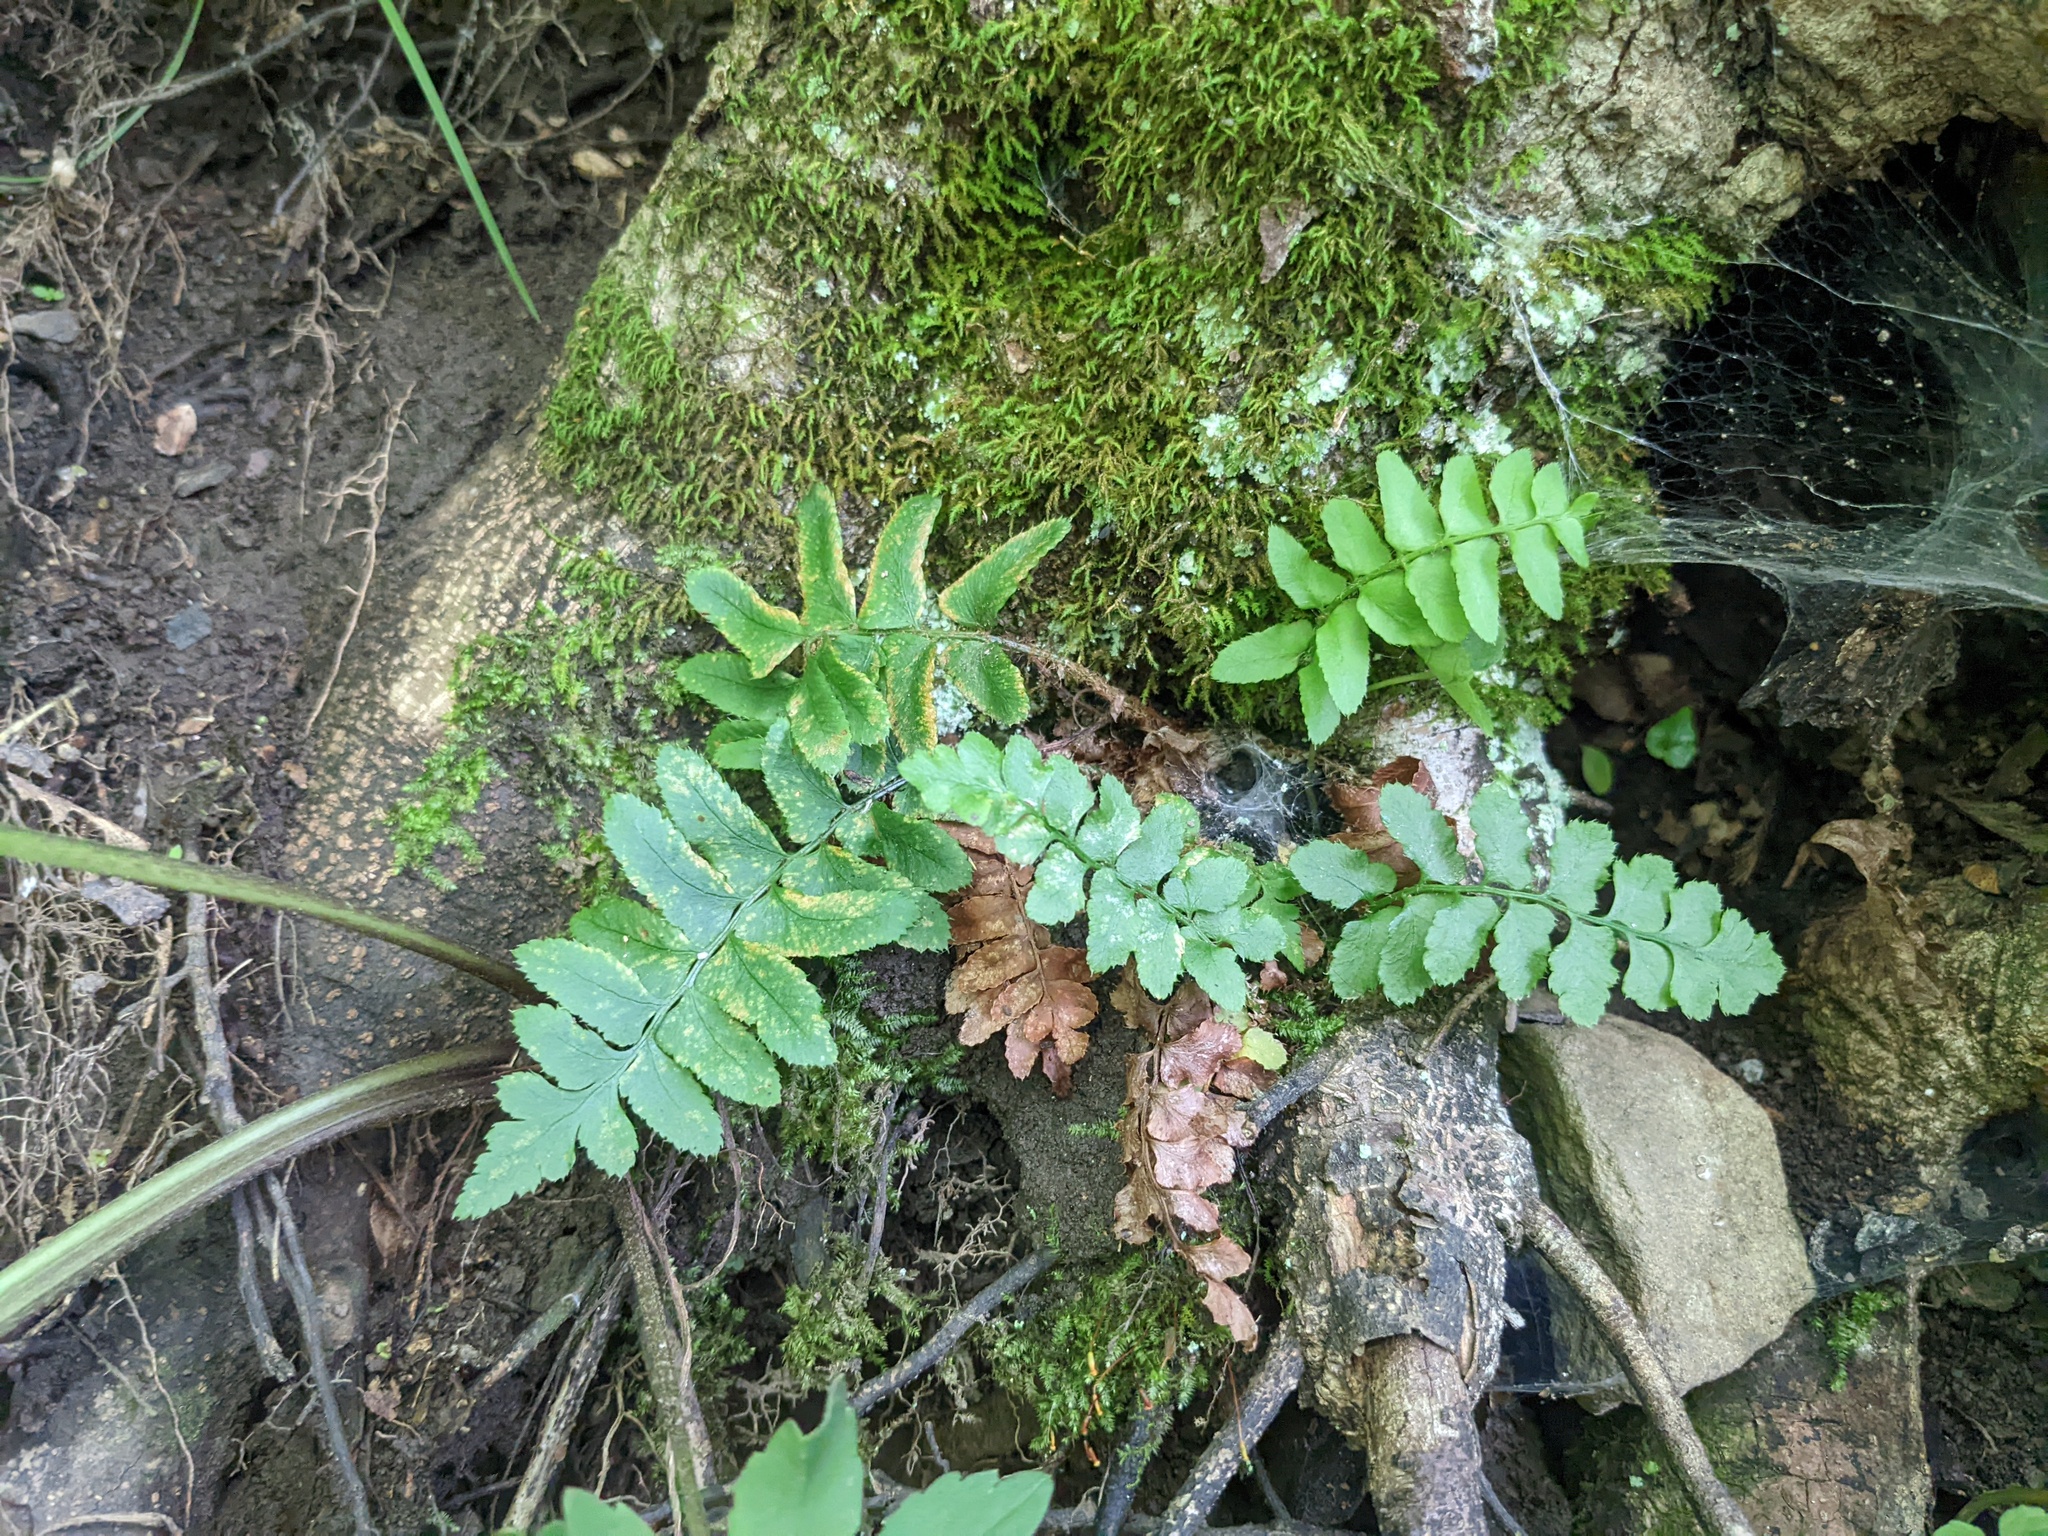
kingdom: Plantae
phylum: Tracheophyta
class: Polypodiopsida
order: Polypodiales
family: Dryopteridaceae
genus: Polystichum
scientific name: Polystichum acrostichoides
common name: Christmas fern
